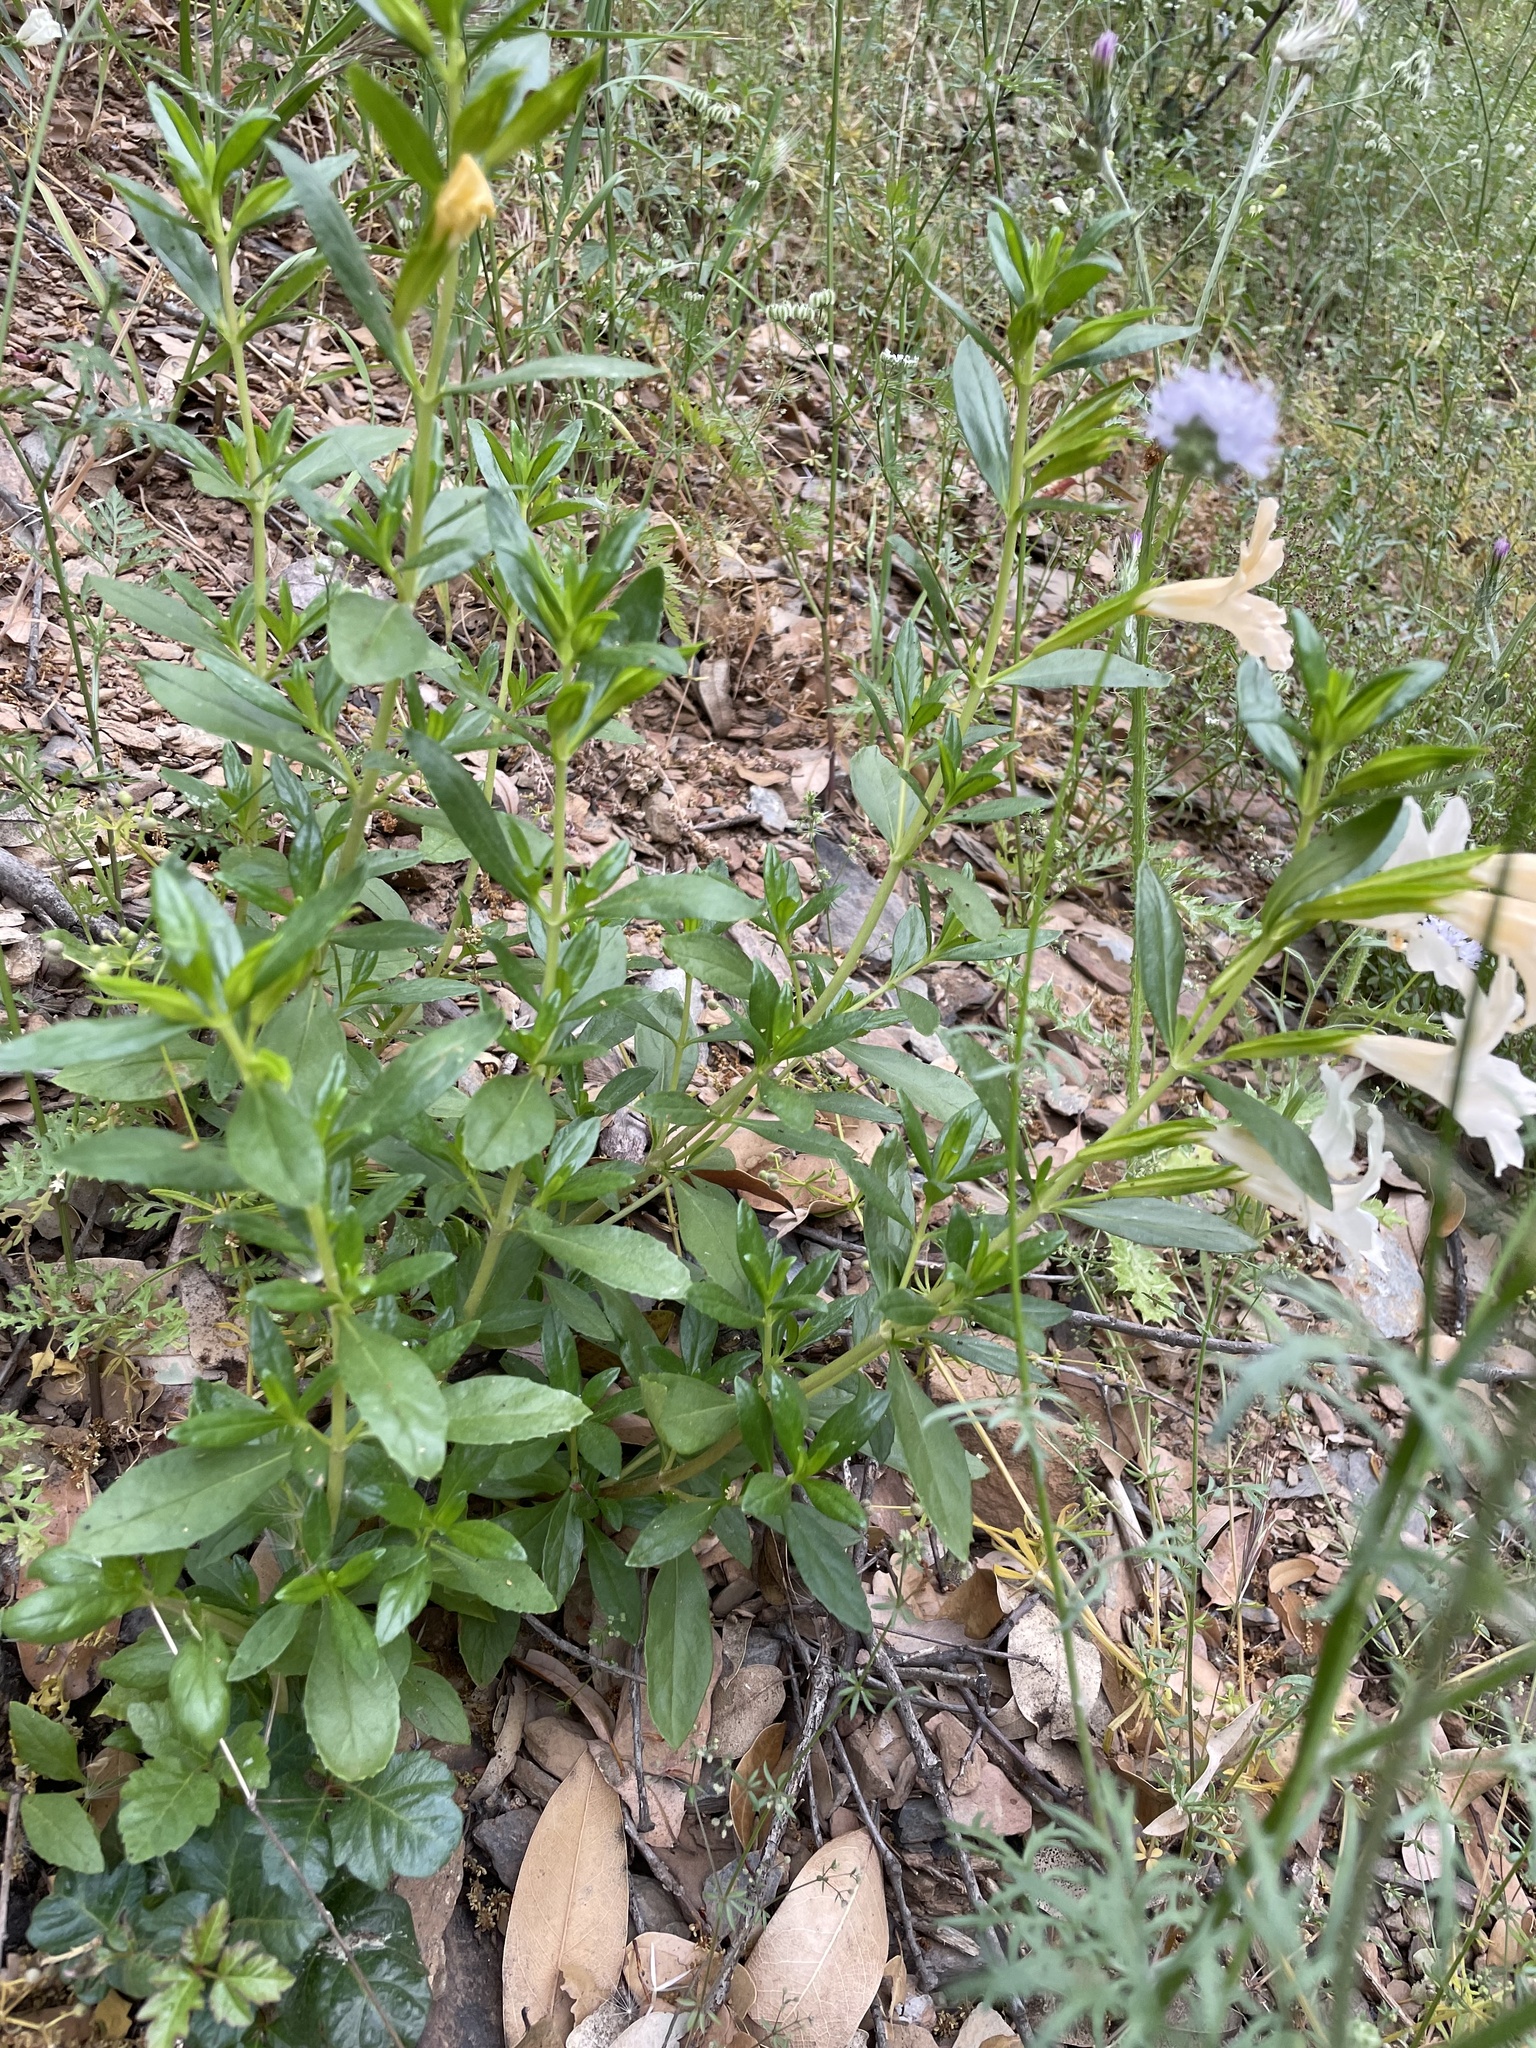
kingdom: Plantae
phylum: Tracheophyta
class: Magnoliopsida
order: Lamiales
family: Phrymaceae
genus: Diplacus
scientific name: Diplacus grandiflorus
